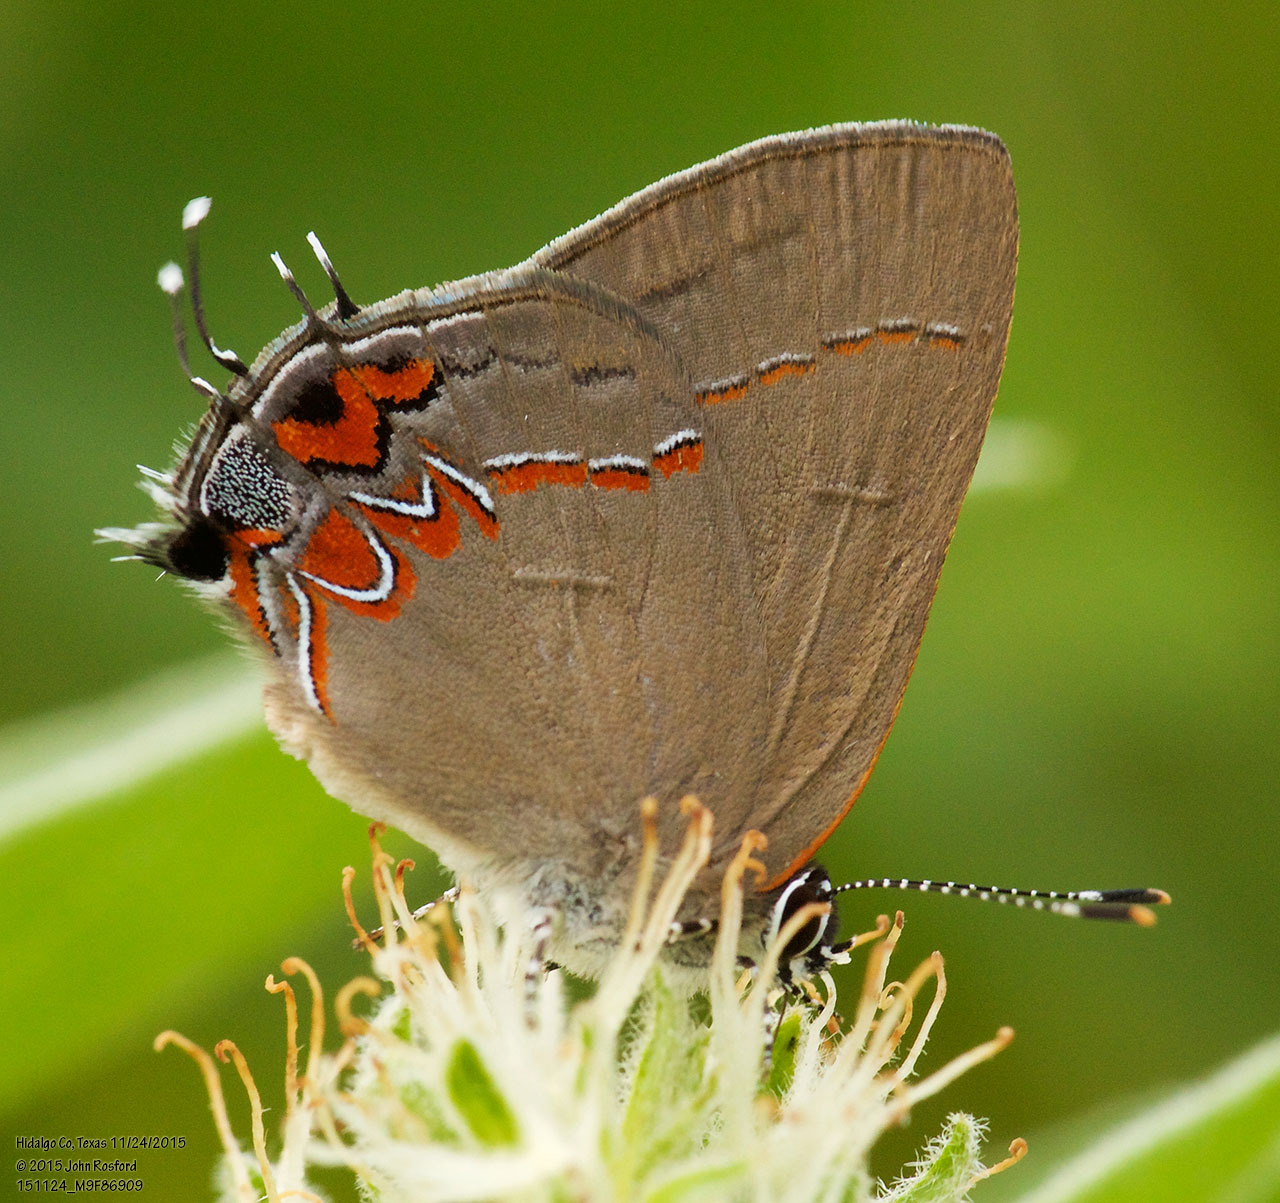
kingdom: Animalia
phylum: Arthropoda
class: Insecta
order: Lepidoptera
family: Lycaenidae
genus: Calycopis
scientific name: Calycopis isobeon
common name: Dusky-blue groundstreak
